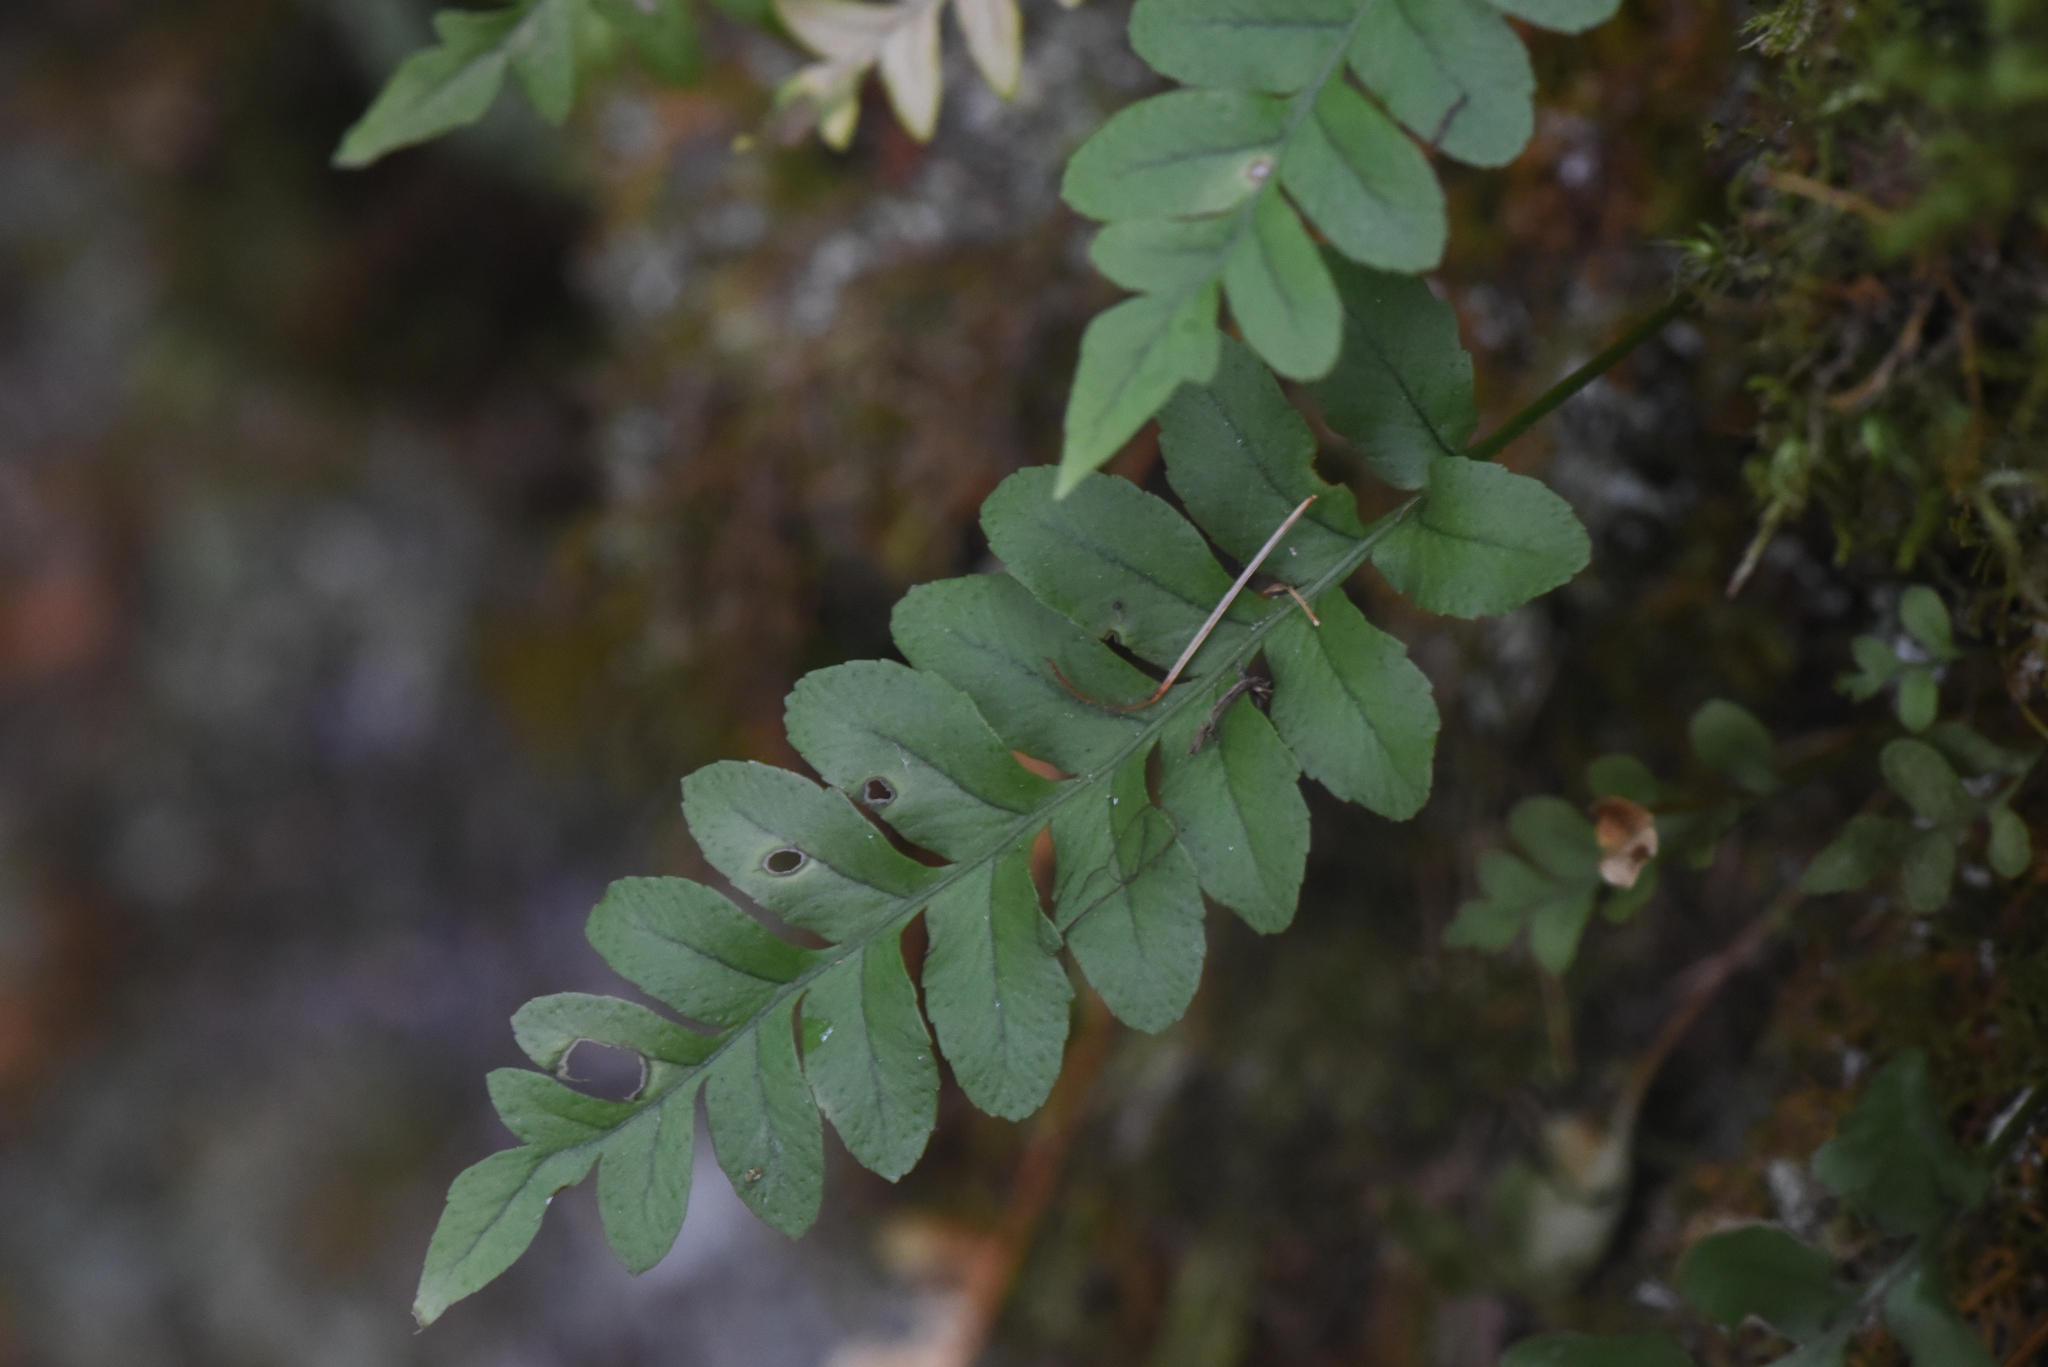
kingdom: Plantae
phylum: Tracheophyta
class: Polypodiopsida
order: Polypodiales
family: Polypodiaceae
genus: Polypodium
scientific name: Polypodium hesperium
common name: Western polypody
